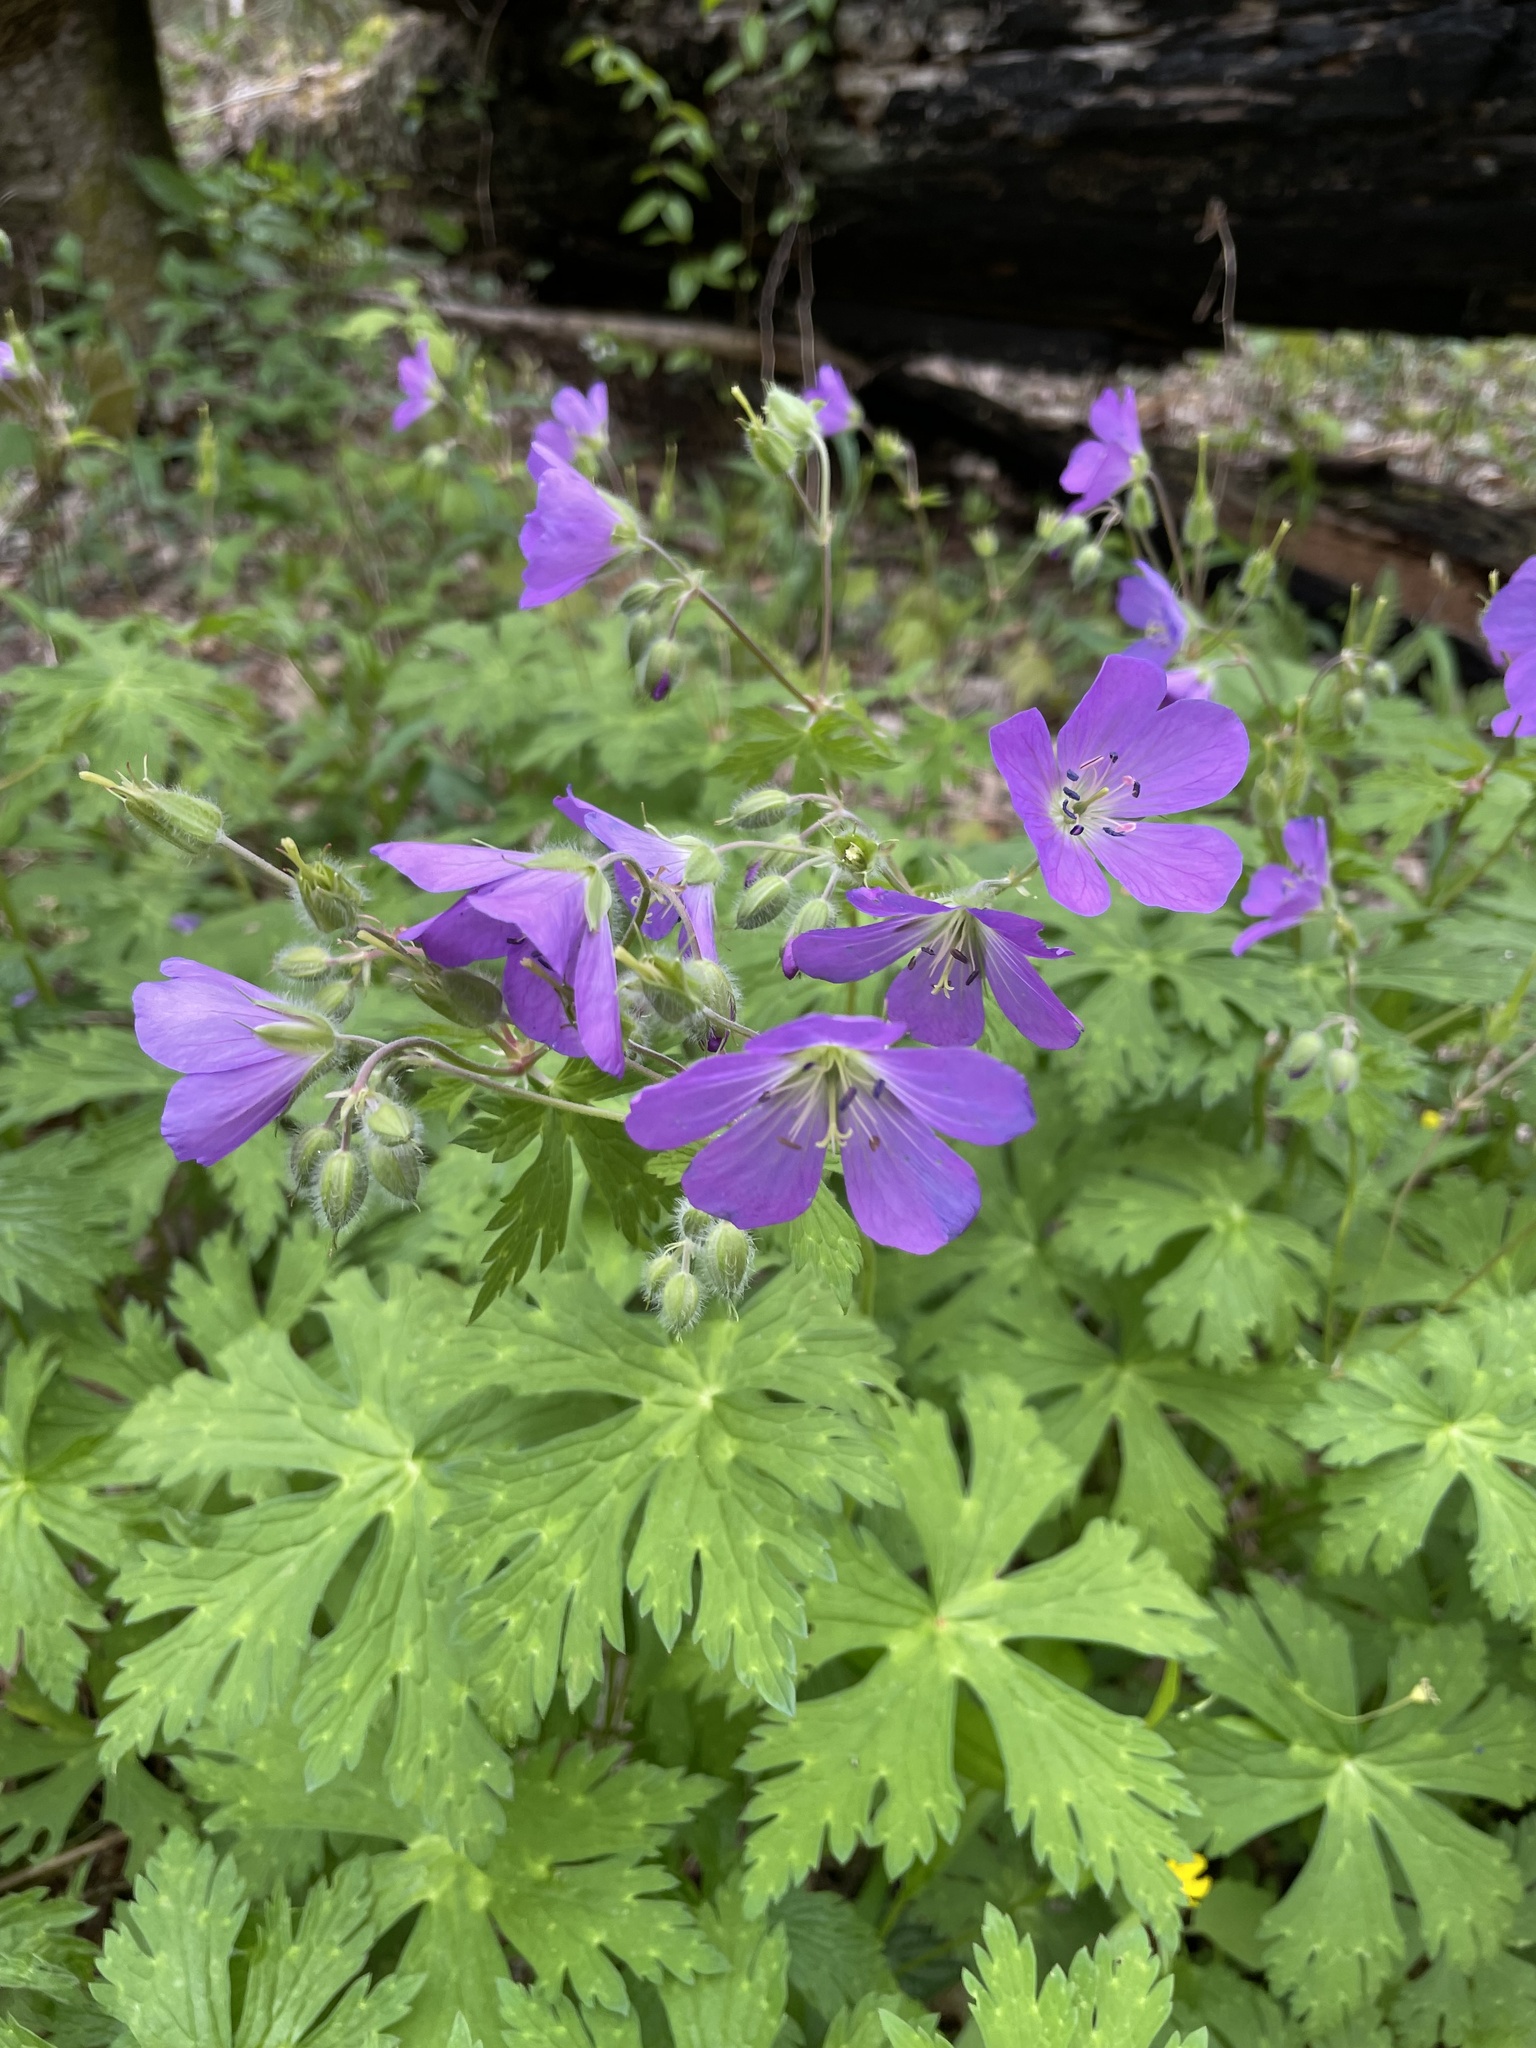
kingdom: Plantae
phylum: Tracheophyta
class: Magnoliopsida
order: Geraniales
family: Geraniaceae
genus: Geranium
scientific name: Geranium maculatum
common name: Spotted geranium
